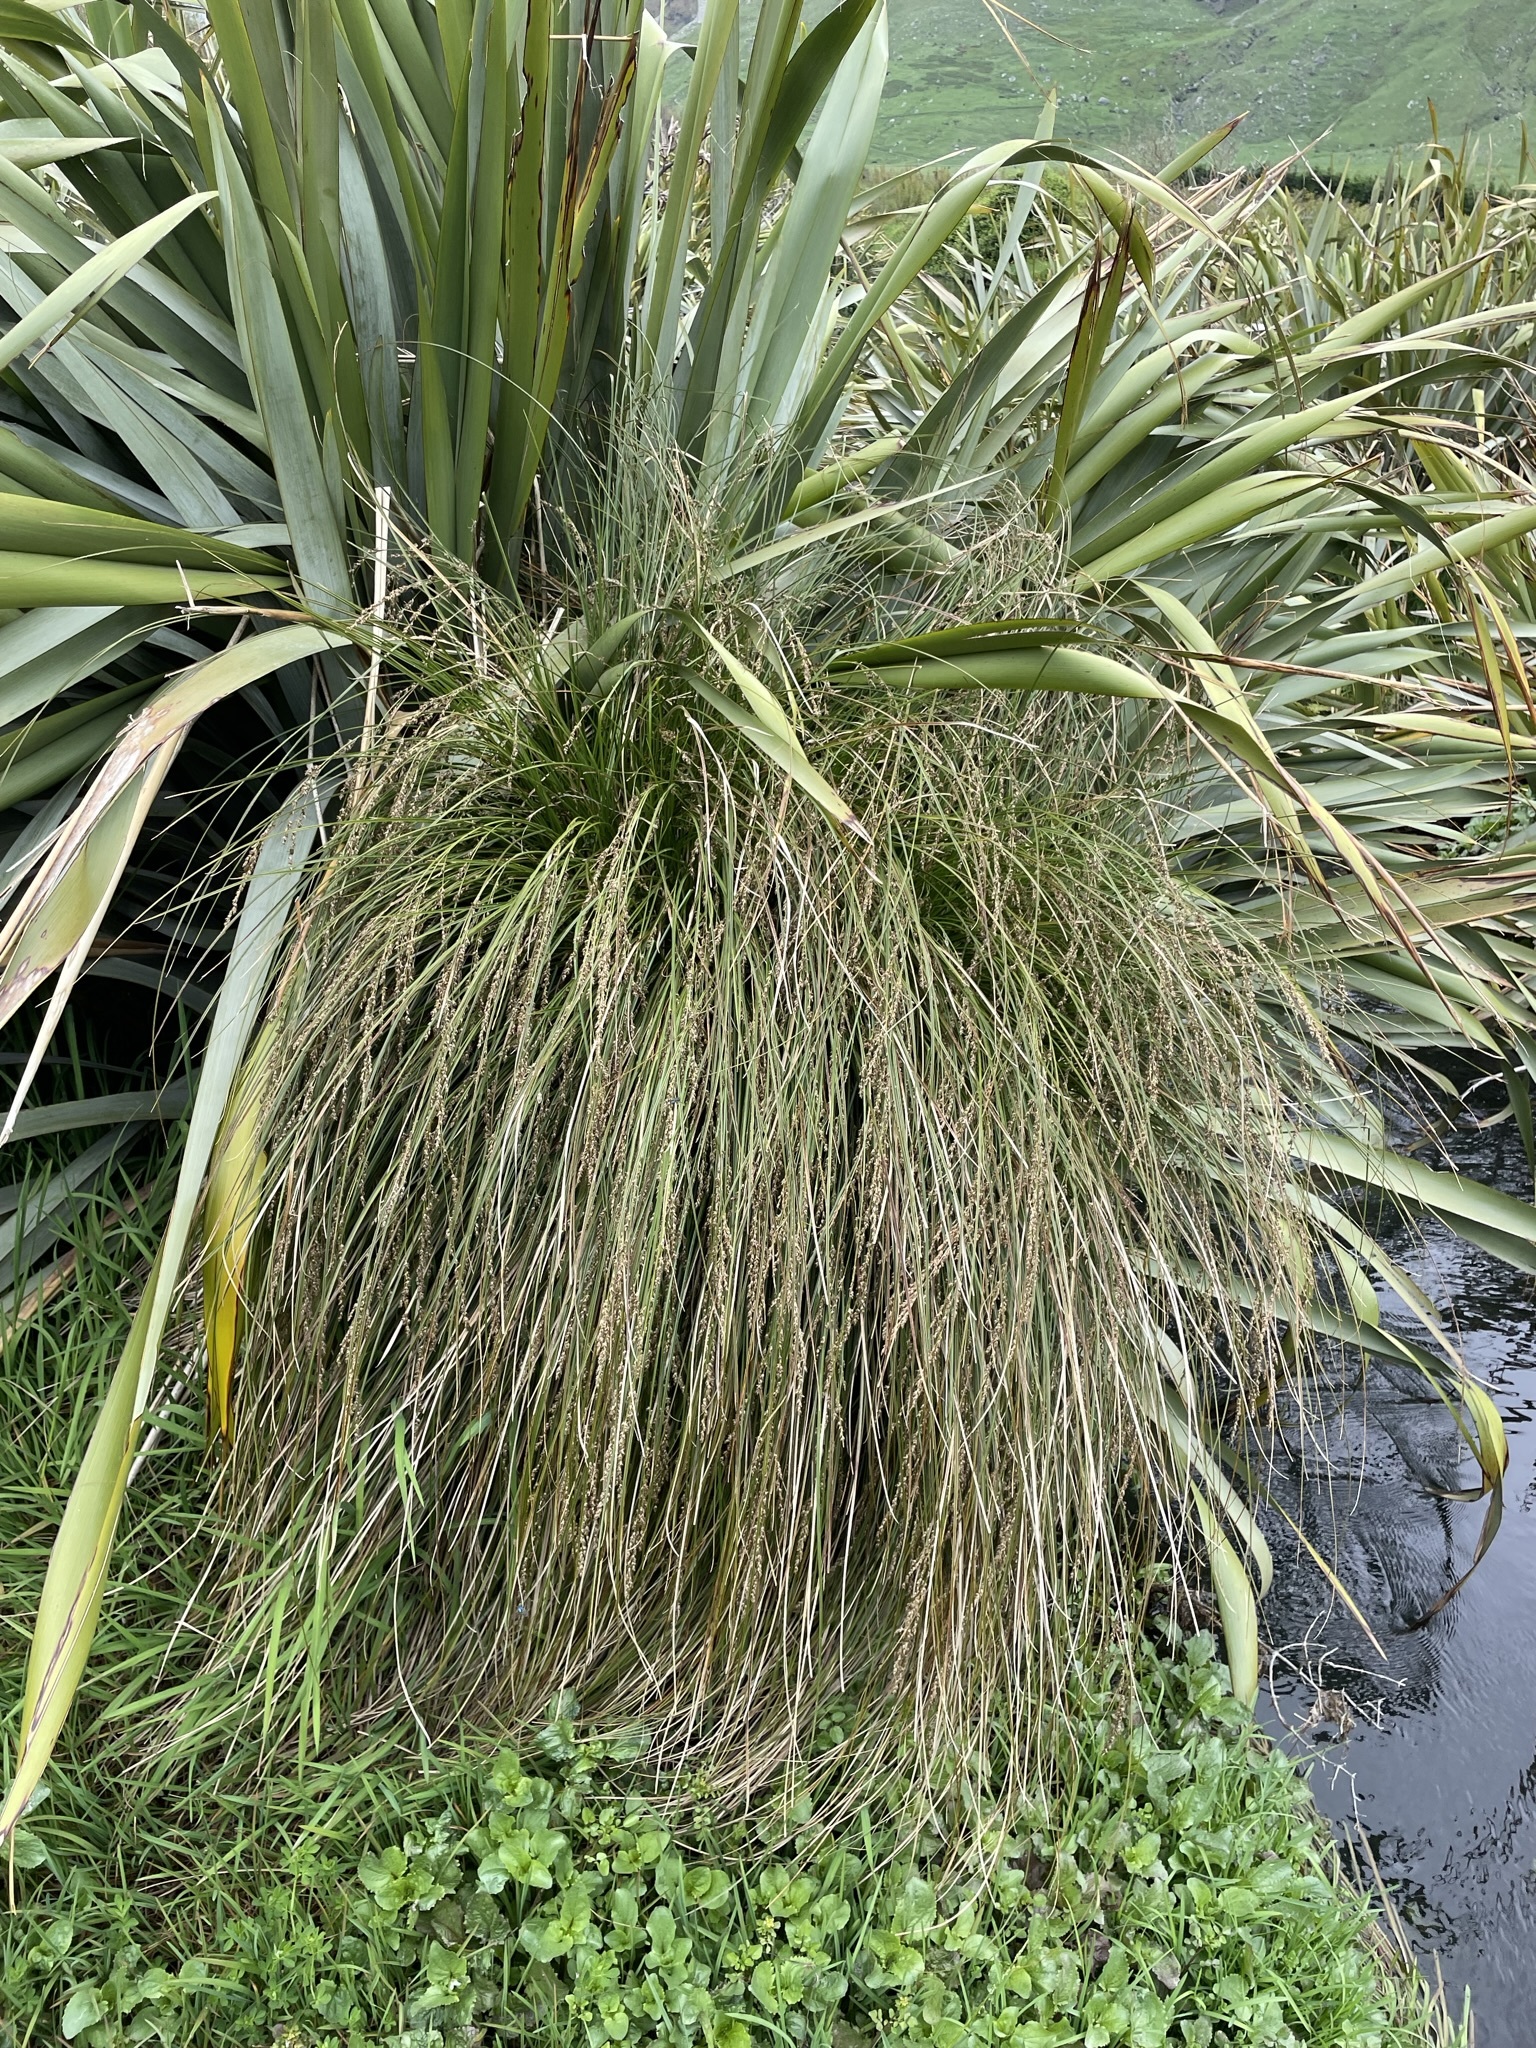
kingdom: Plantae
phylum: Tracheophyta
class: Liliopsida
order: Poales
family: Cyperaceae
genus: Carex
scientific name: Carex secta
